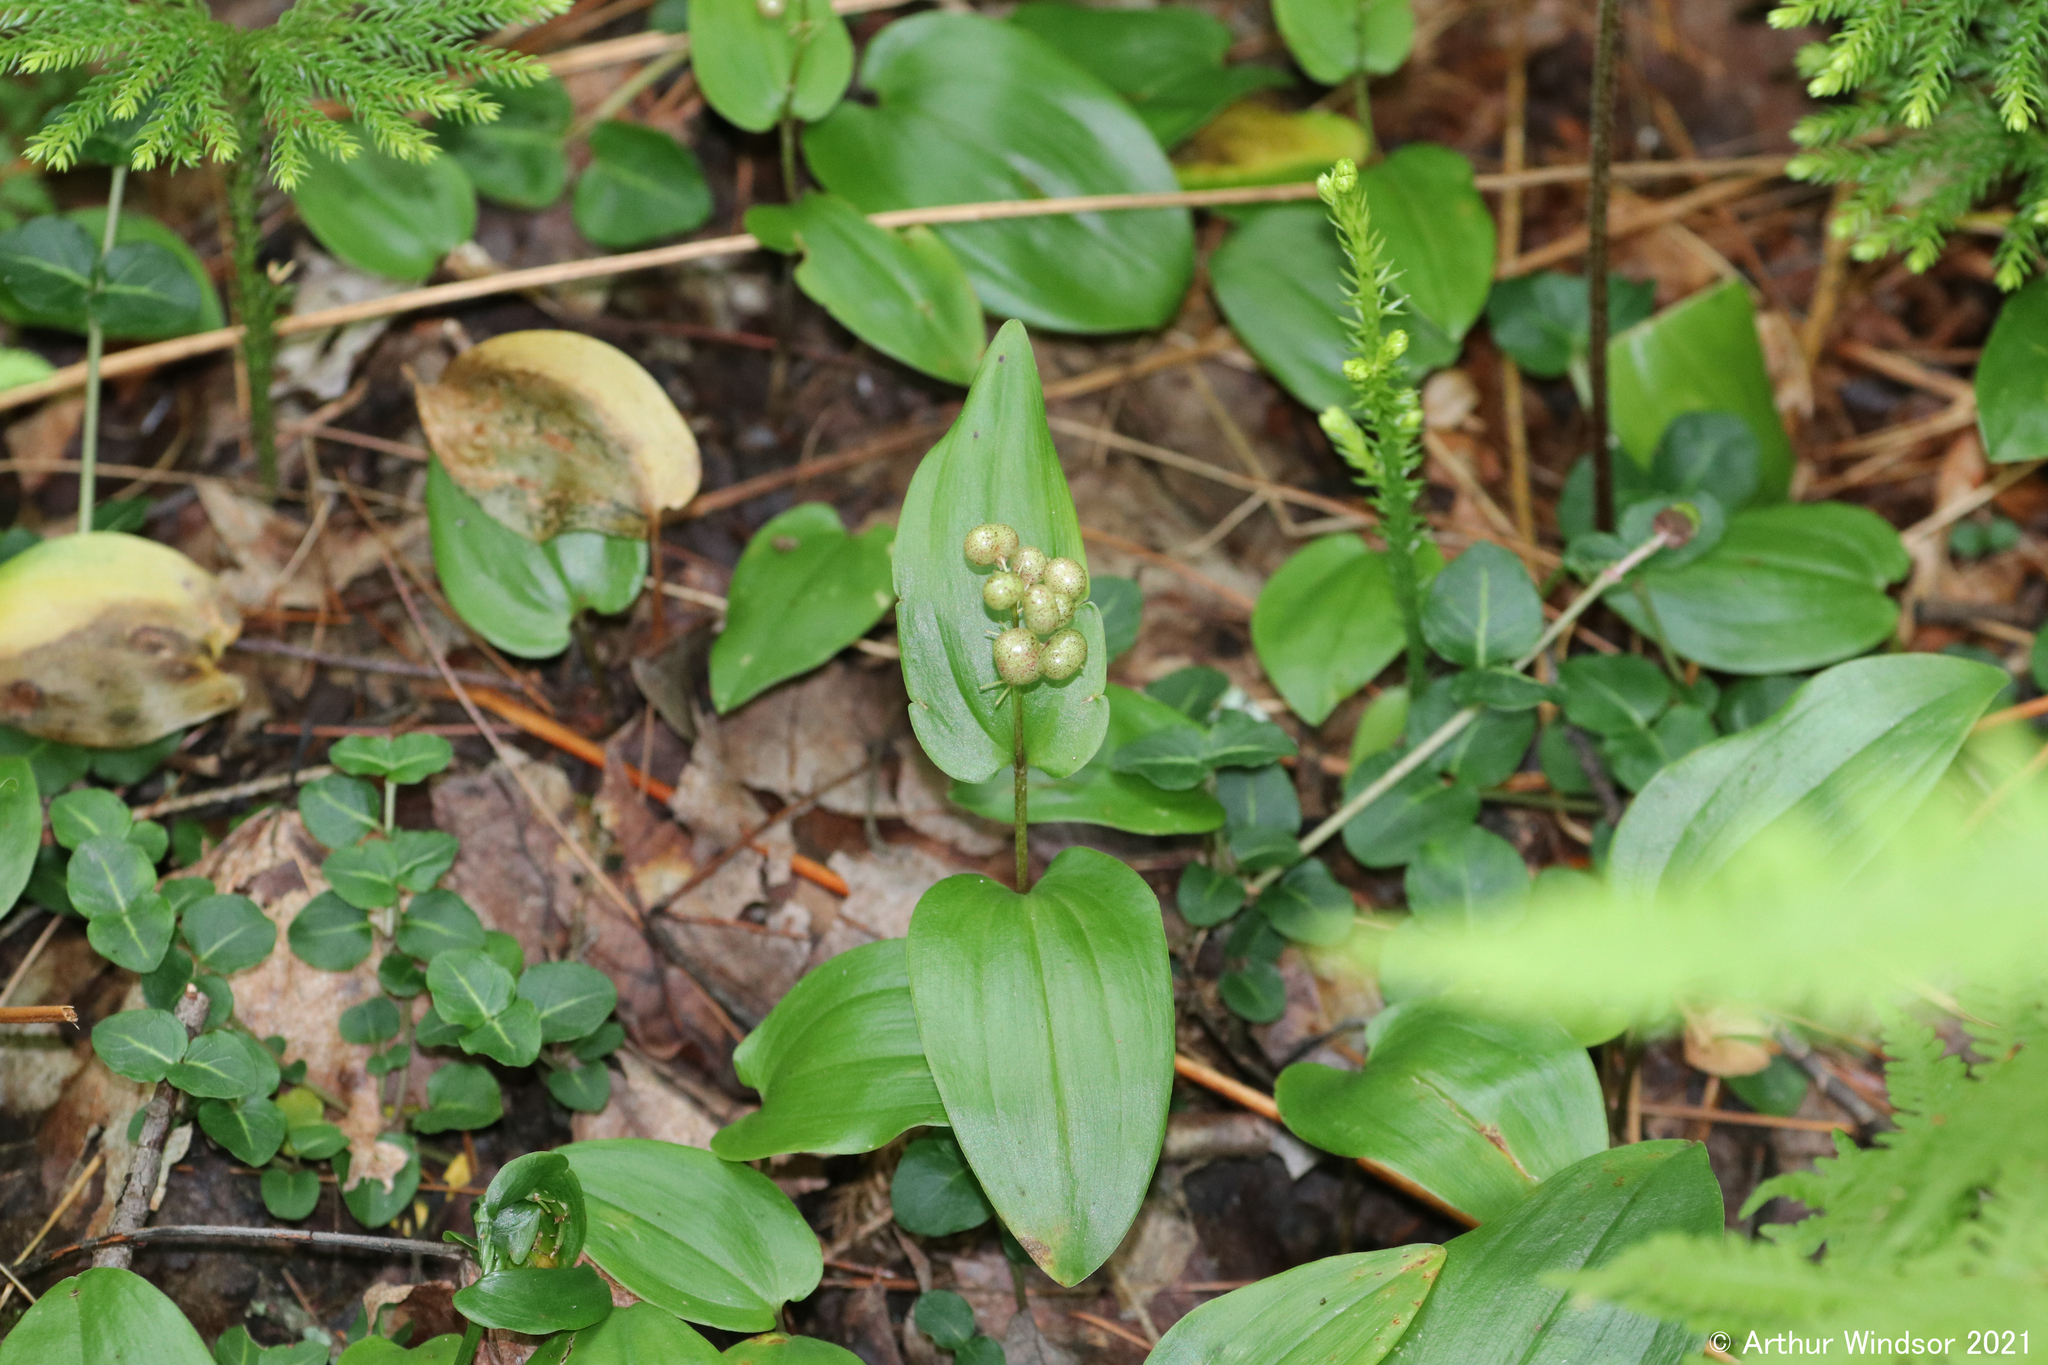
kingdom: Plantae
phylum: Tracheophyta
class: Liliopsida
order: Asparagales
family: Asparagaceae
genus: Maianthemum
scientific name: Maianthemum canadense
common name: False lily-of-the-valley
